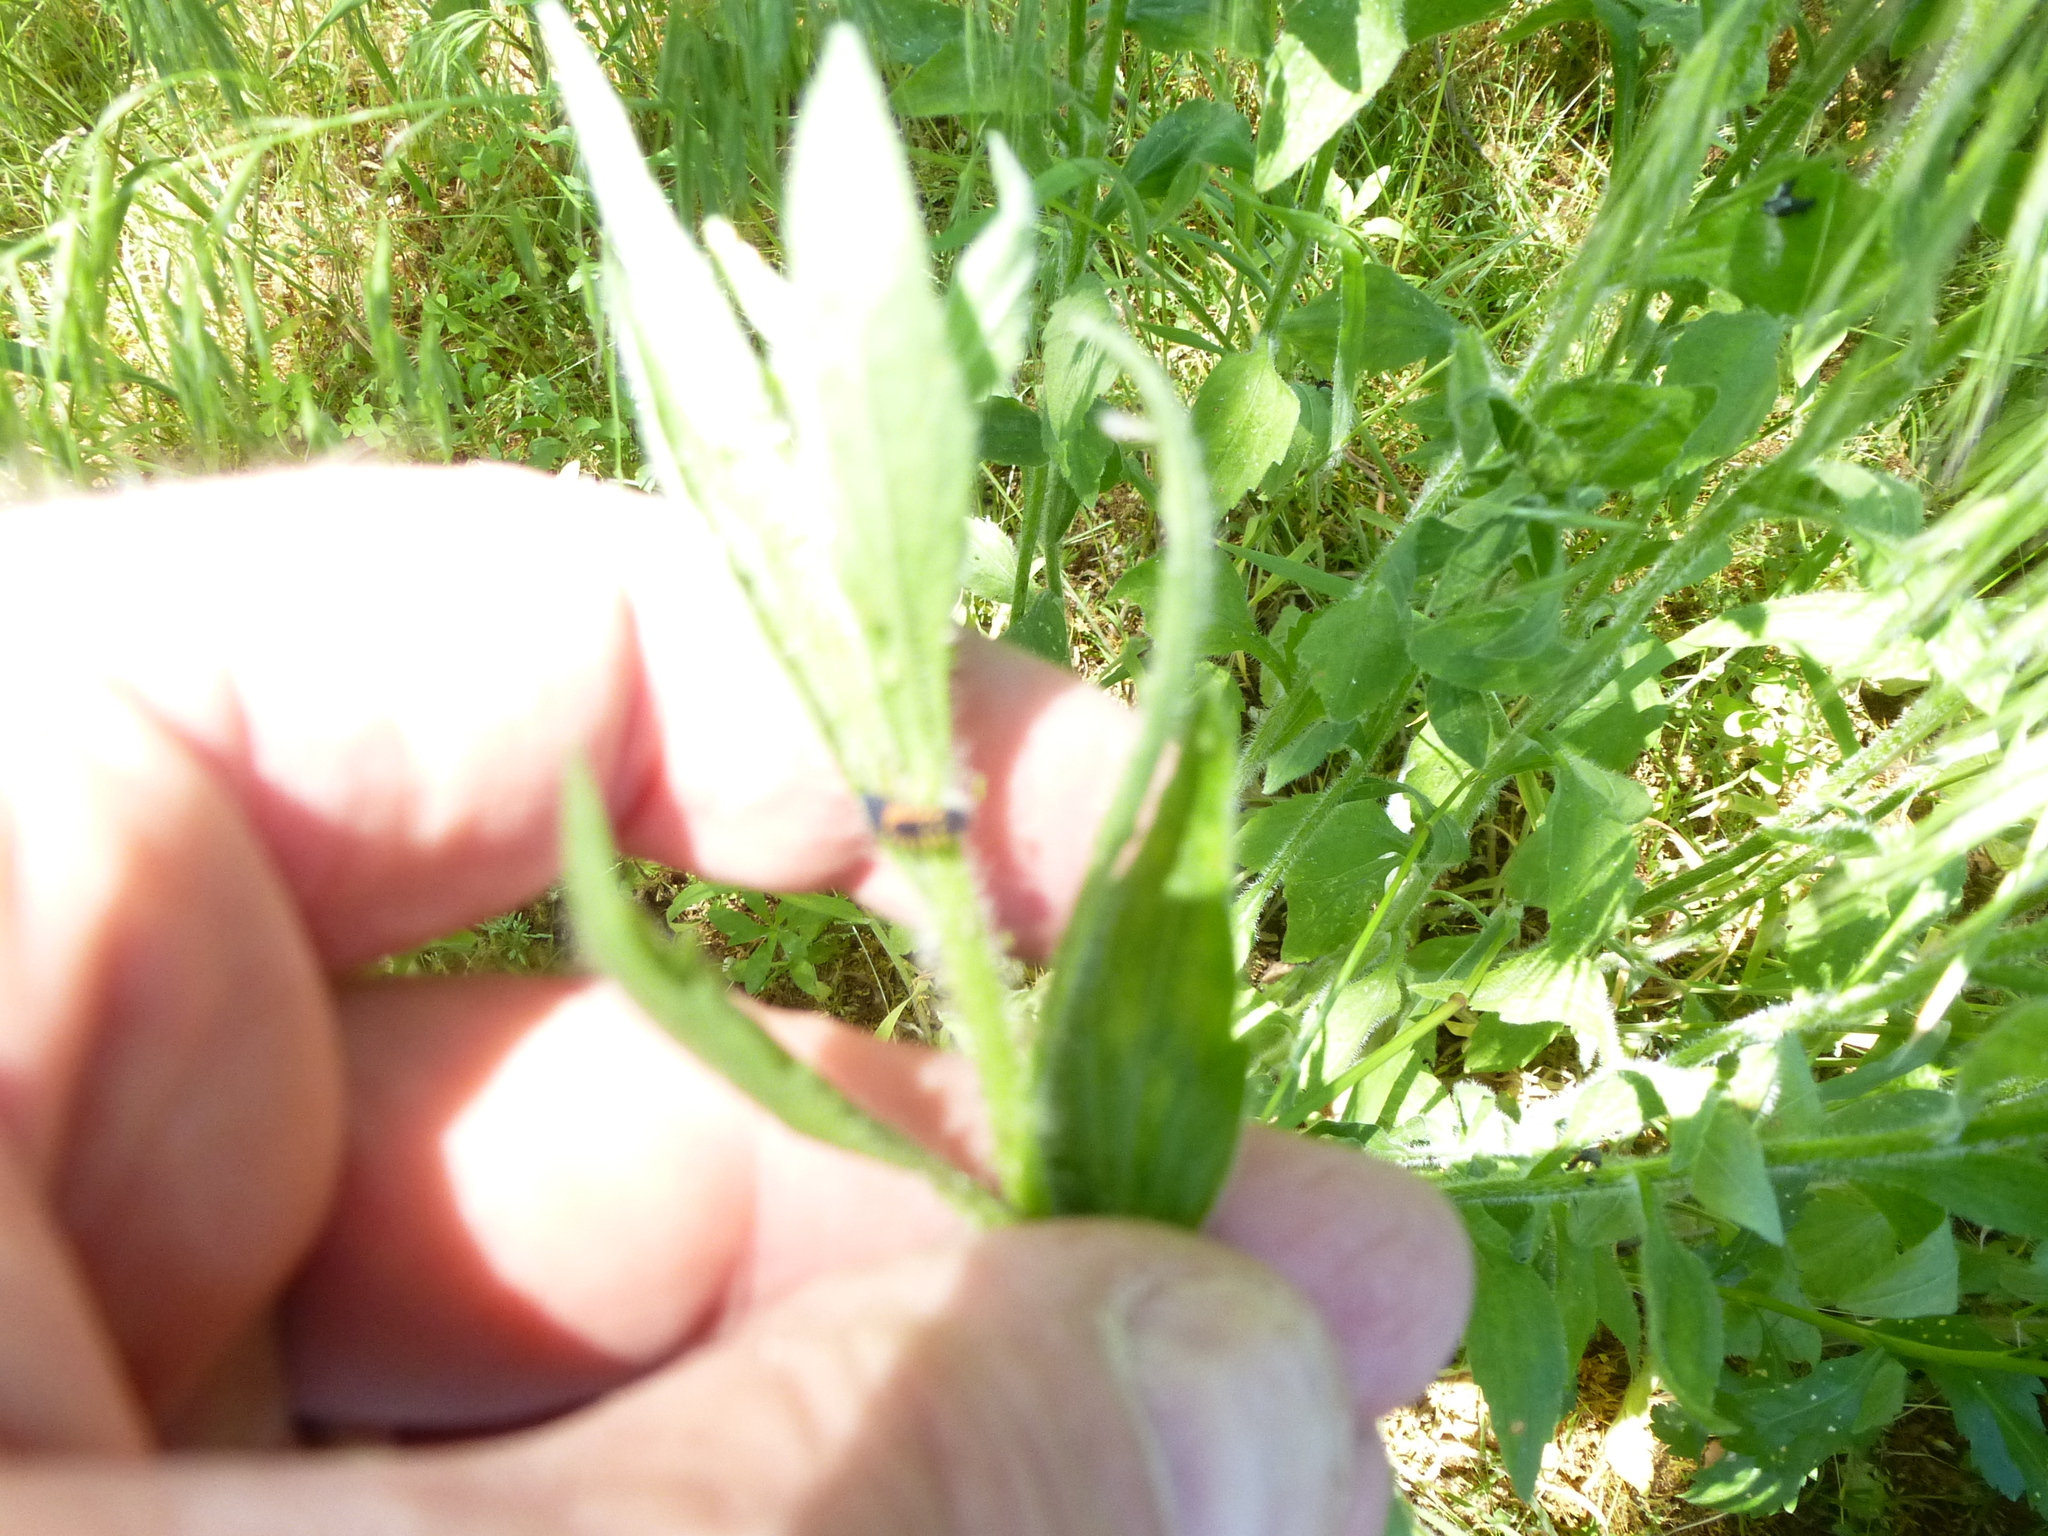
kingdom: Animalia
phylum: Arthropoda
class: Insecta
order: Coleoptera
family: Coccinellidae
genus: Harmonia
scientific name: Harmonia axyridis
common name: Harlequin ladybird
